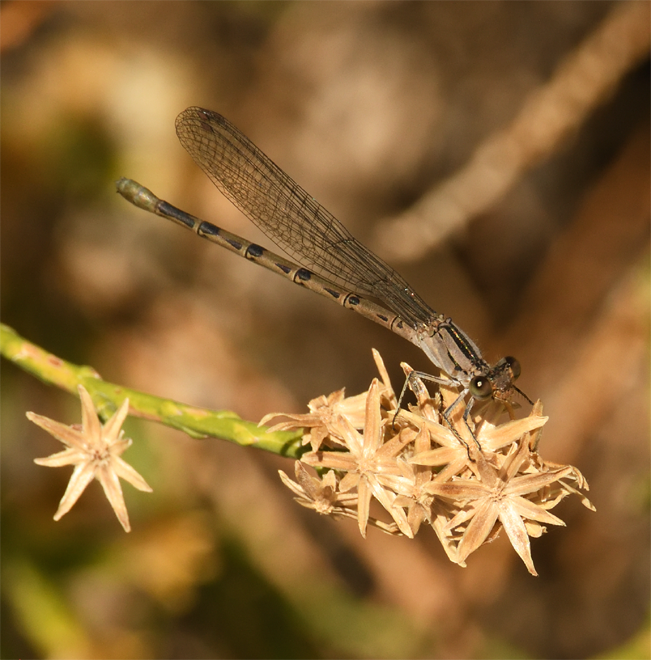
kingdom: Animalia
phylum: Arthropoda
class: Insecta
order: Odonata
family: Coenagrionidae
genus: Argia
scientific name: Argia vivida
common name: Vivid dancer
